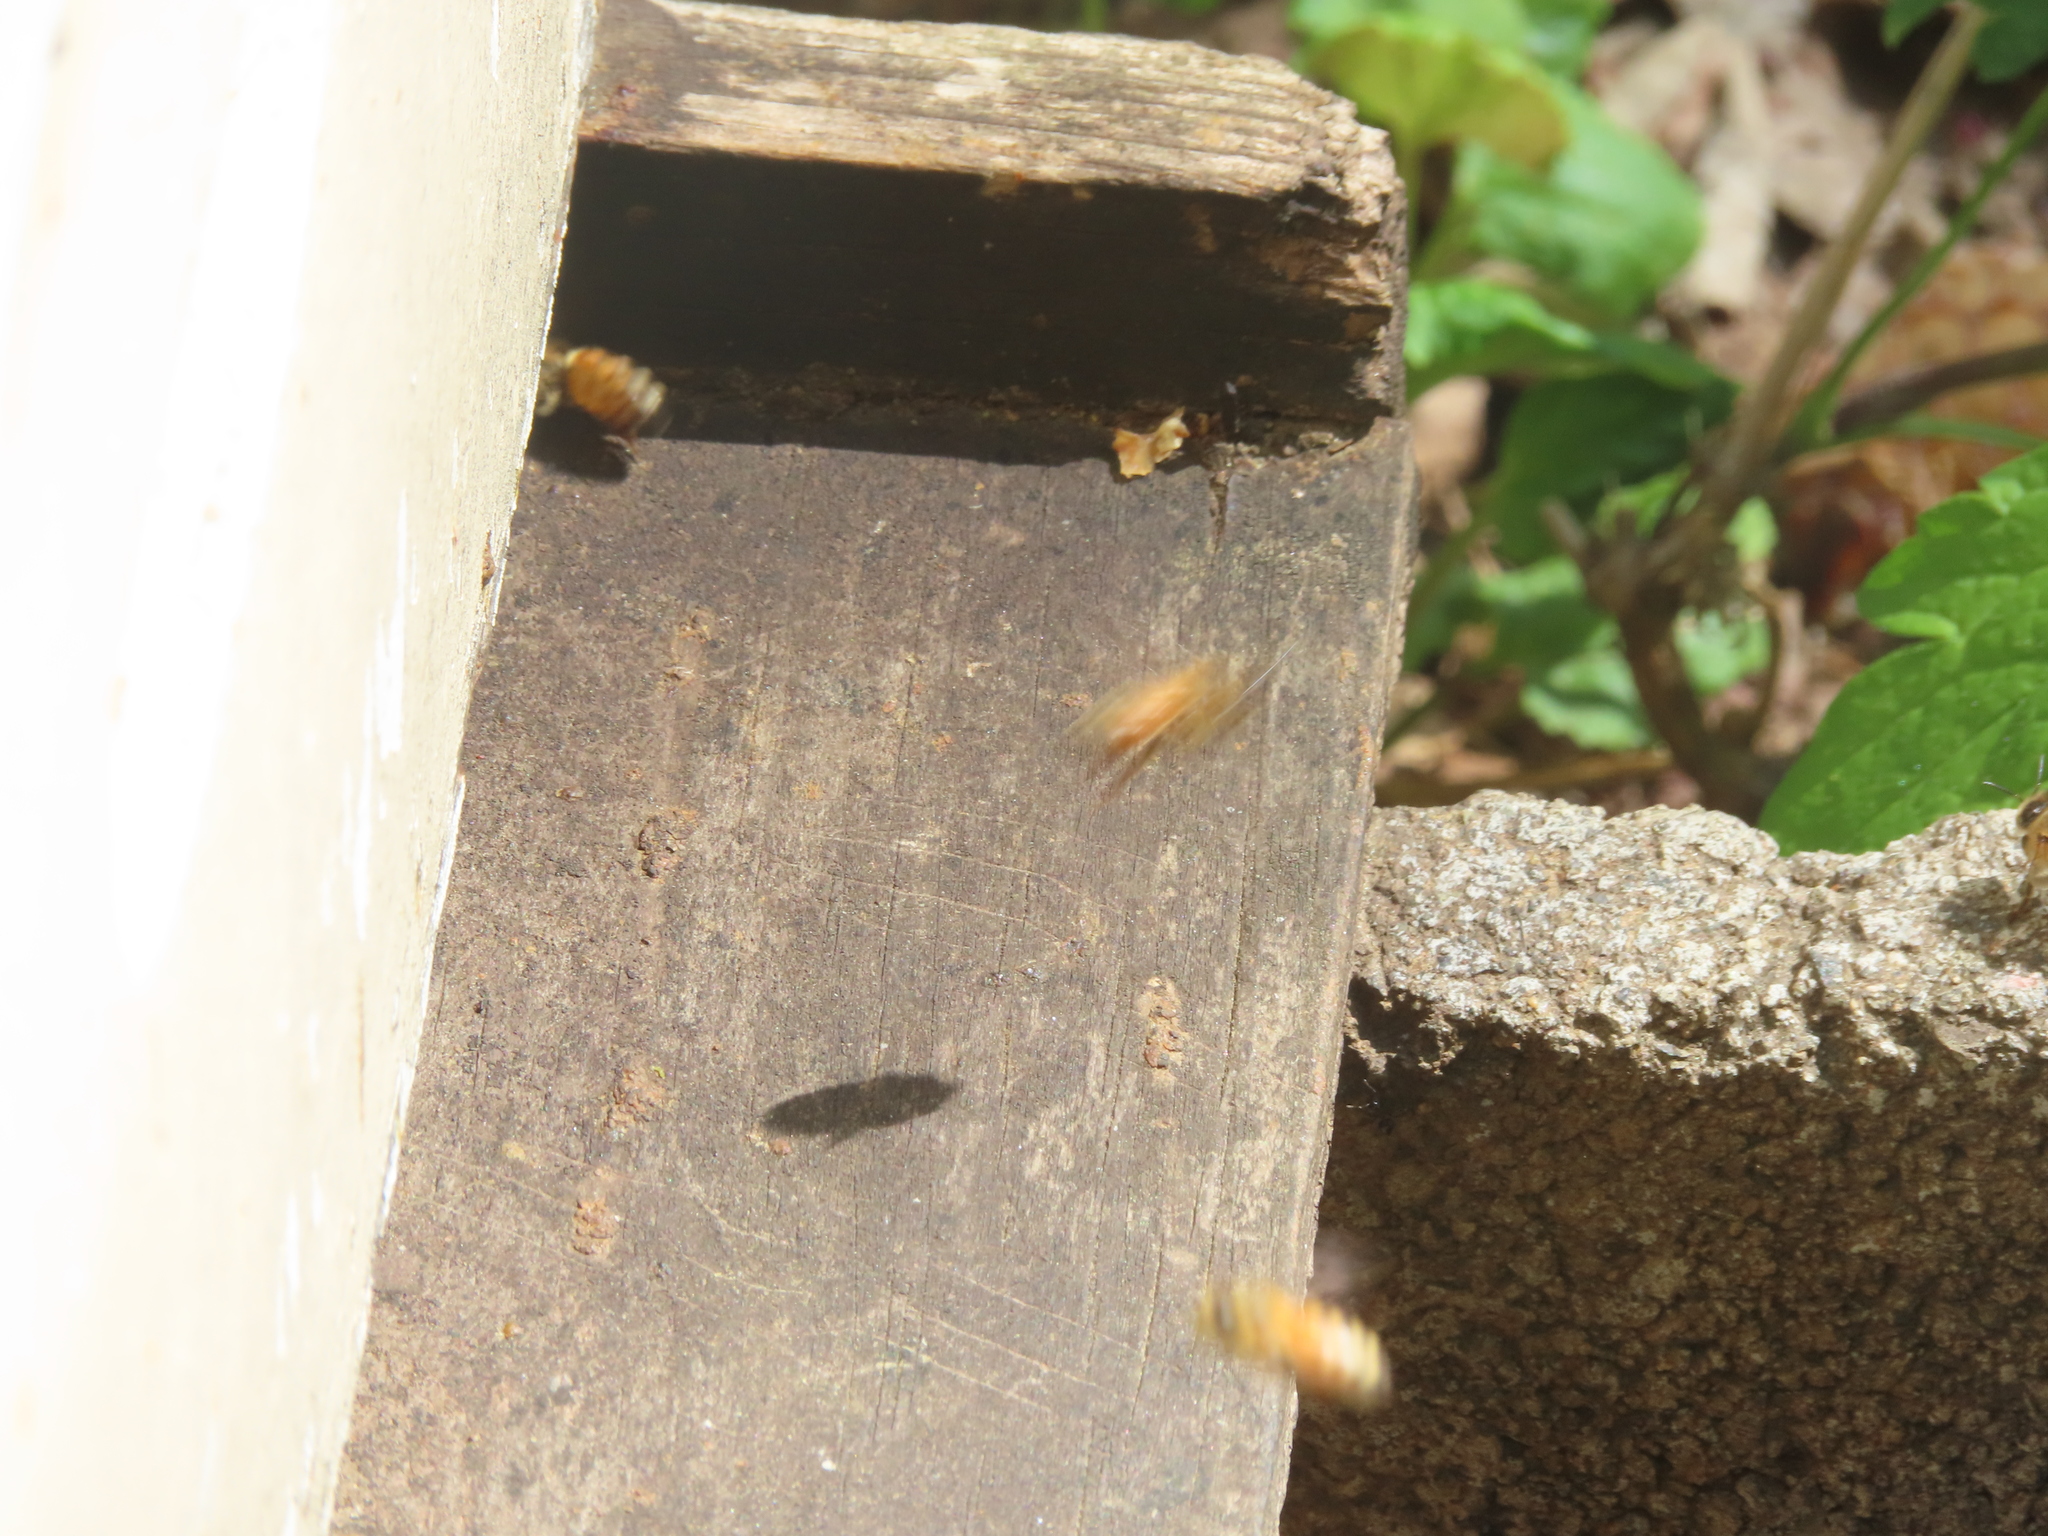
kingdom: Animalia
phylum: Arthropoda
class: Insecta
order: Hymenoptera
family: Apidae
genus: Apis
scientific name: Apis mellifera
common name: Honey bee
